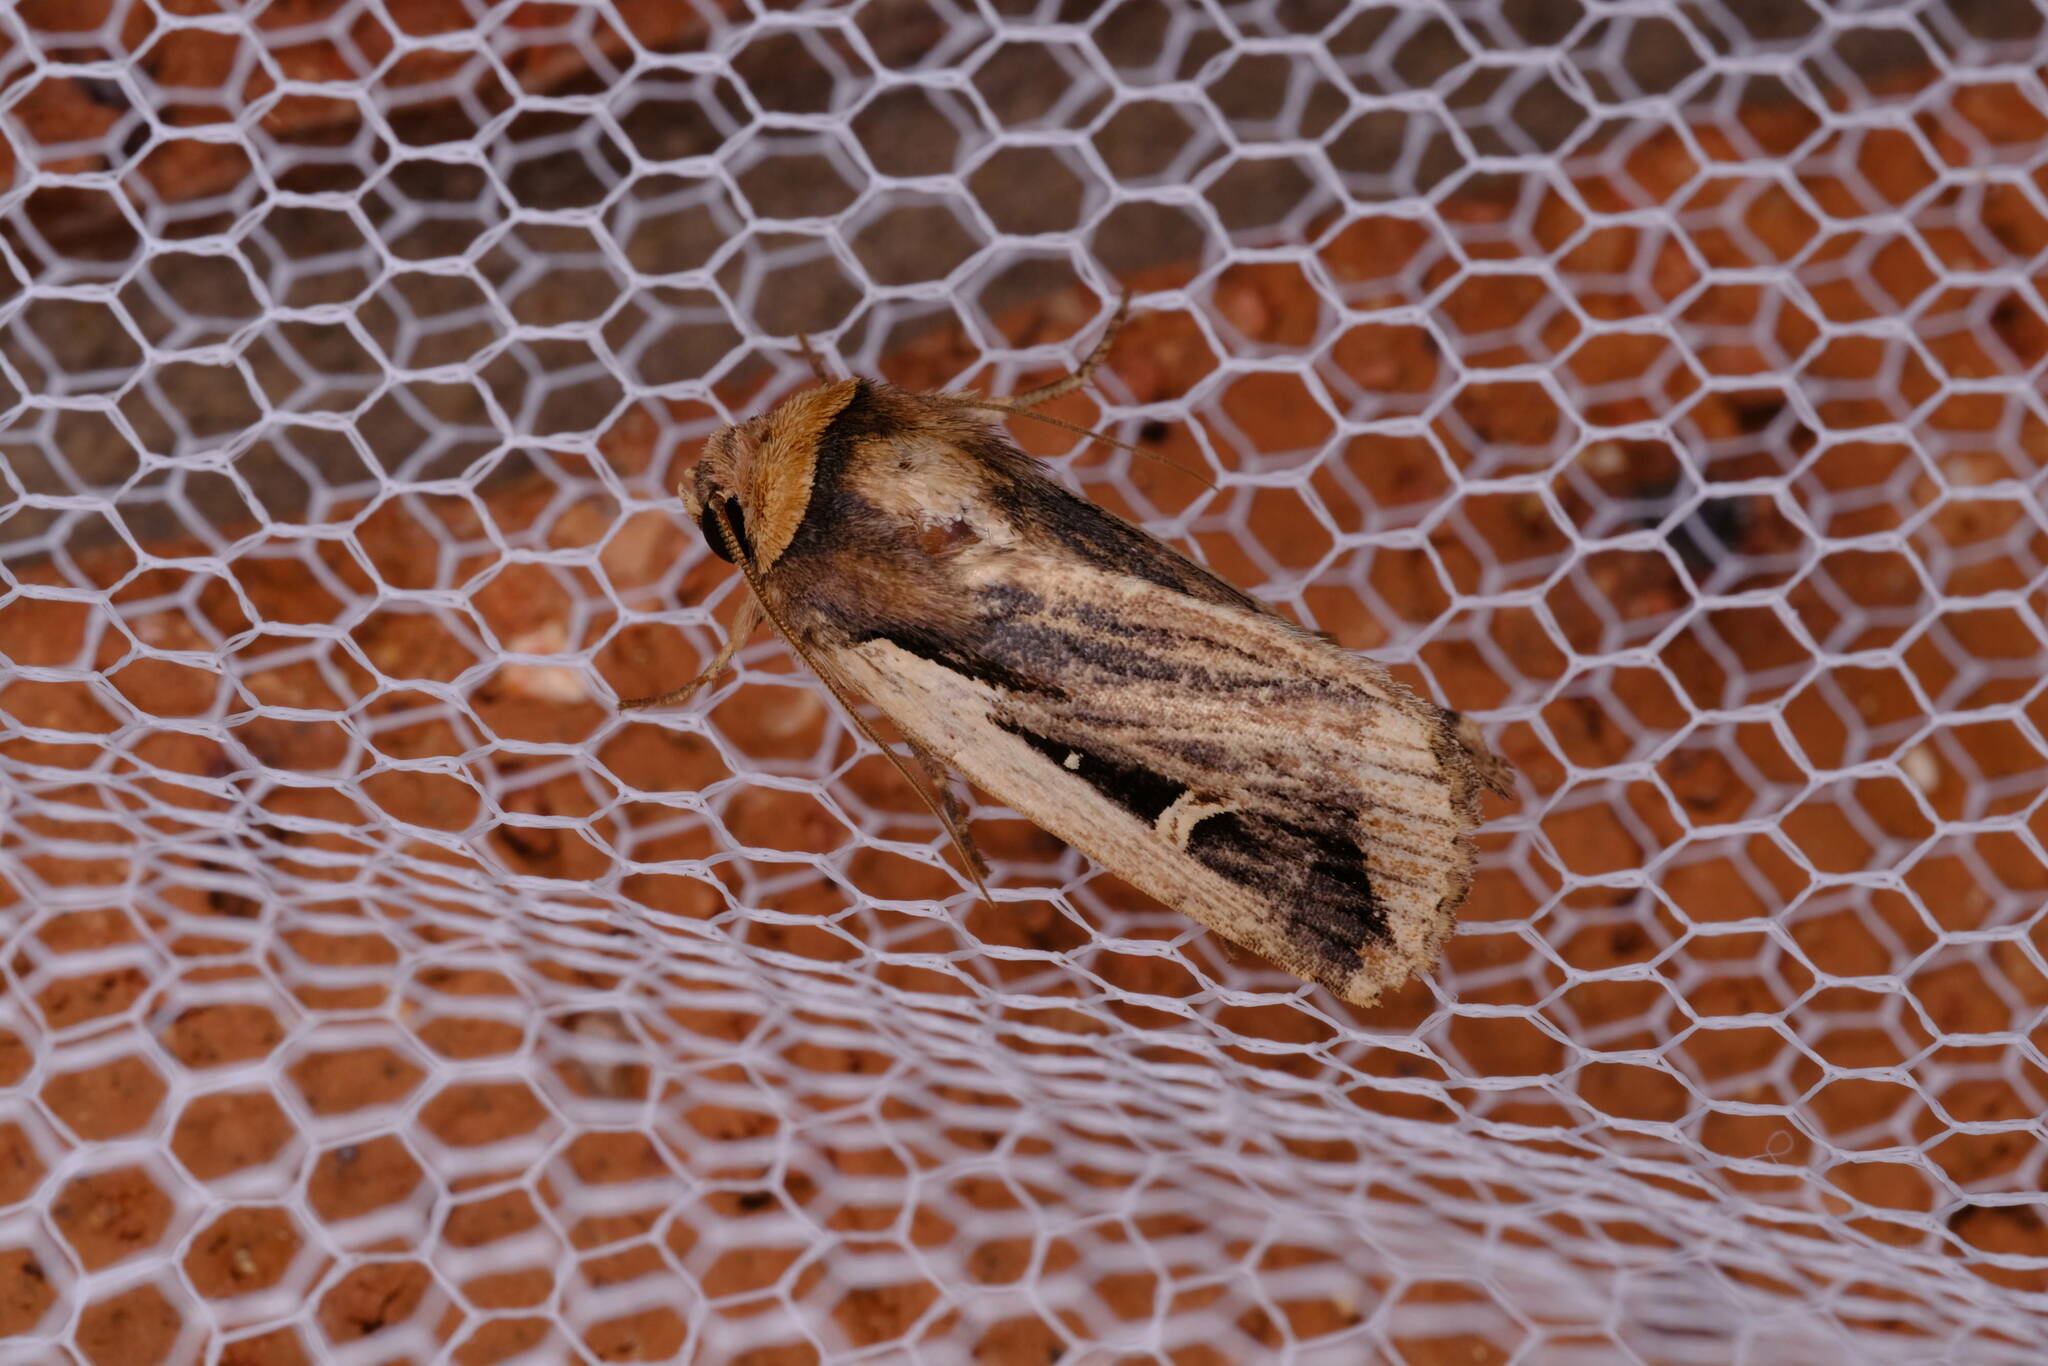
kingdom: Animalia
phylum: Arthropoda
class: Insecta
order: Lepidoptera
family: Noctuidae
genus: Proteuxoa
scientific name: Proteuxoa tortisigna
